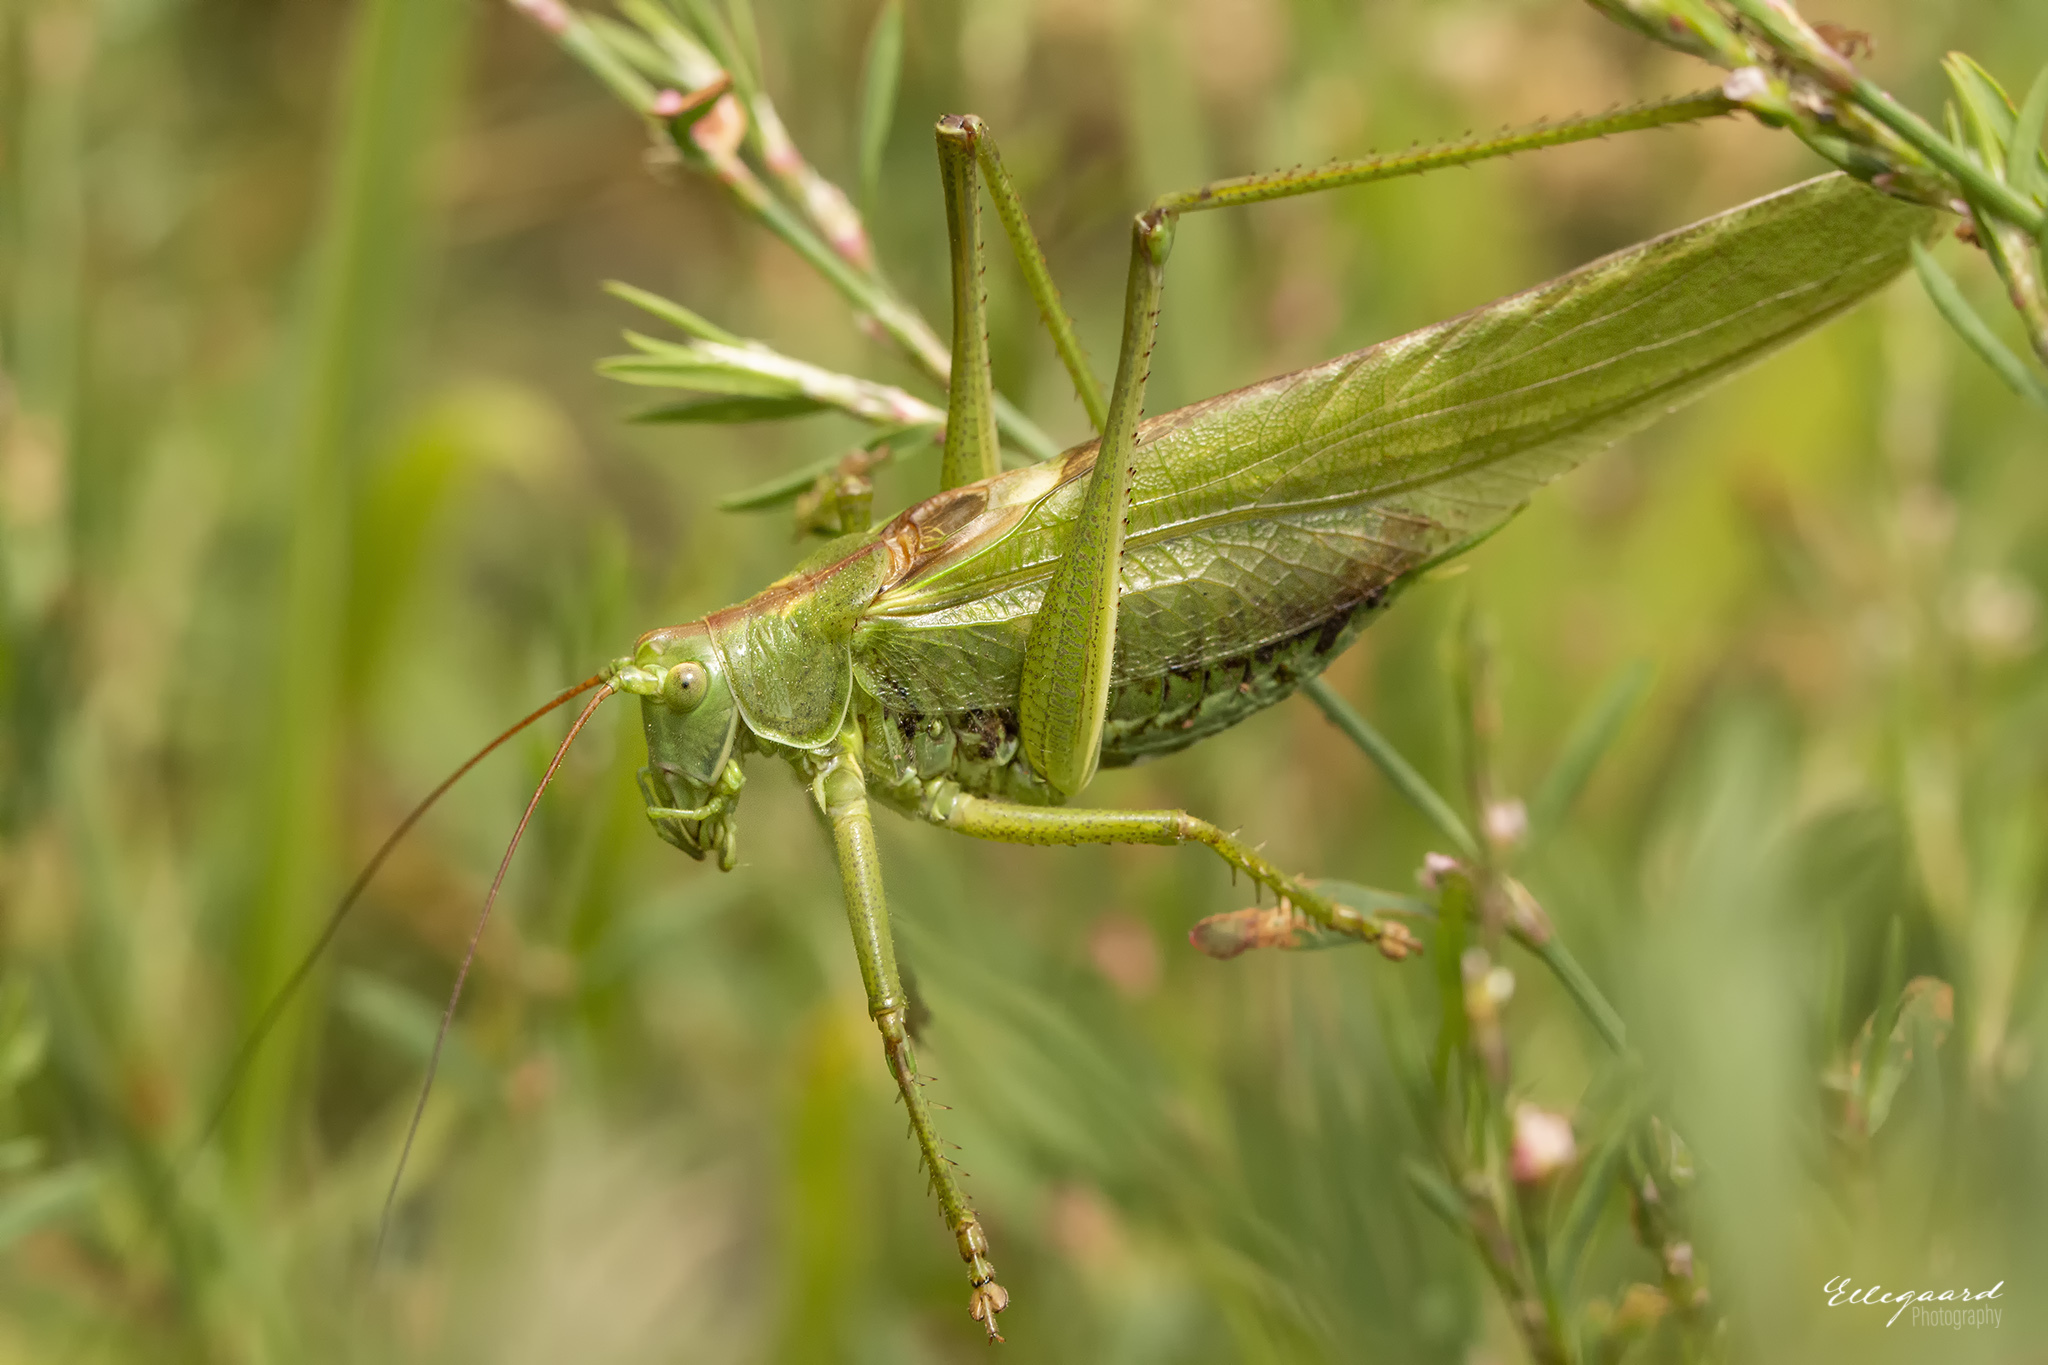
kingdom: Animalia
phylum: Arthropoda
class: Insecta
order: Orthoptera
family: Tettigoniidae
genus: Tettigonia
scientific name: Tettigonia viridissima
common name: Great green bush-cricket
